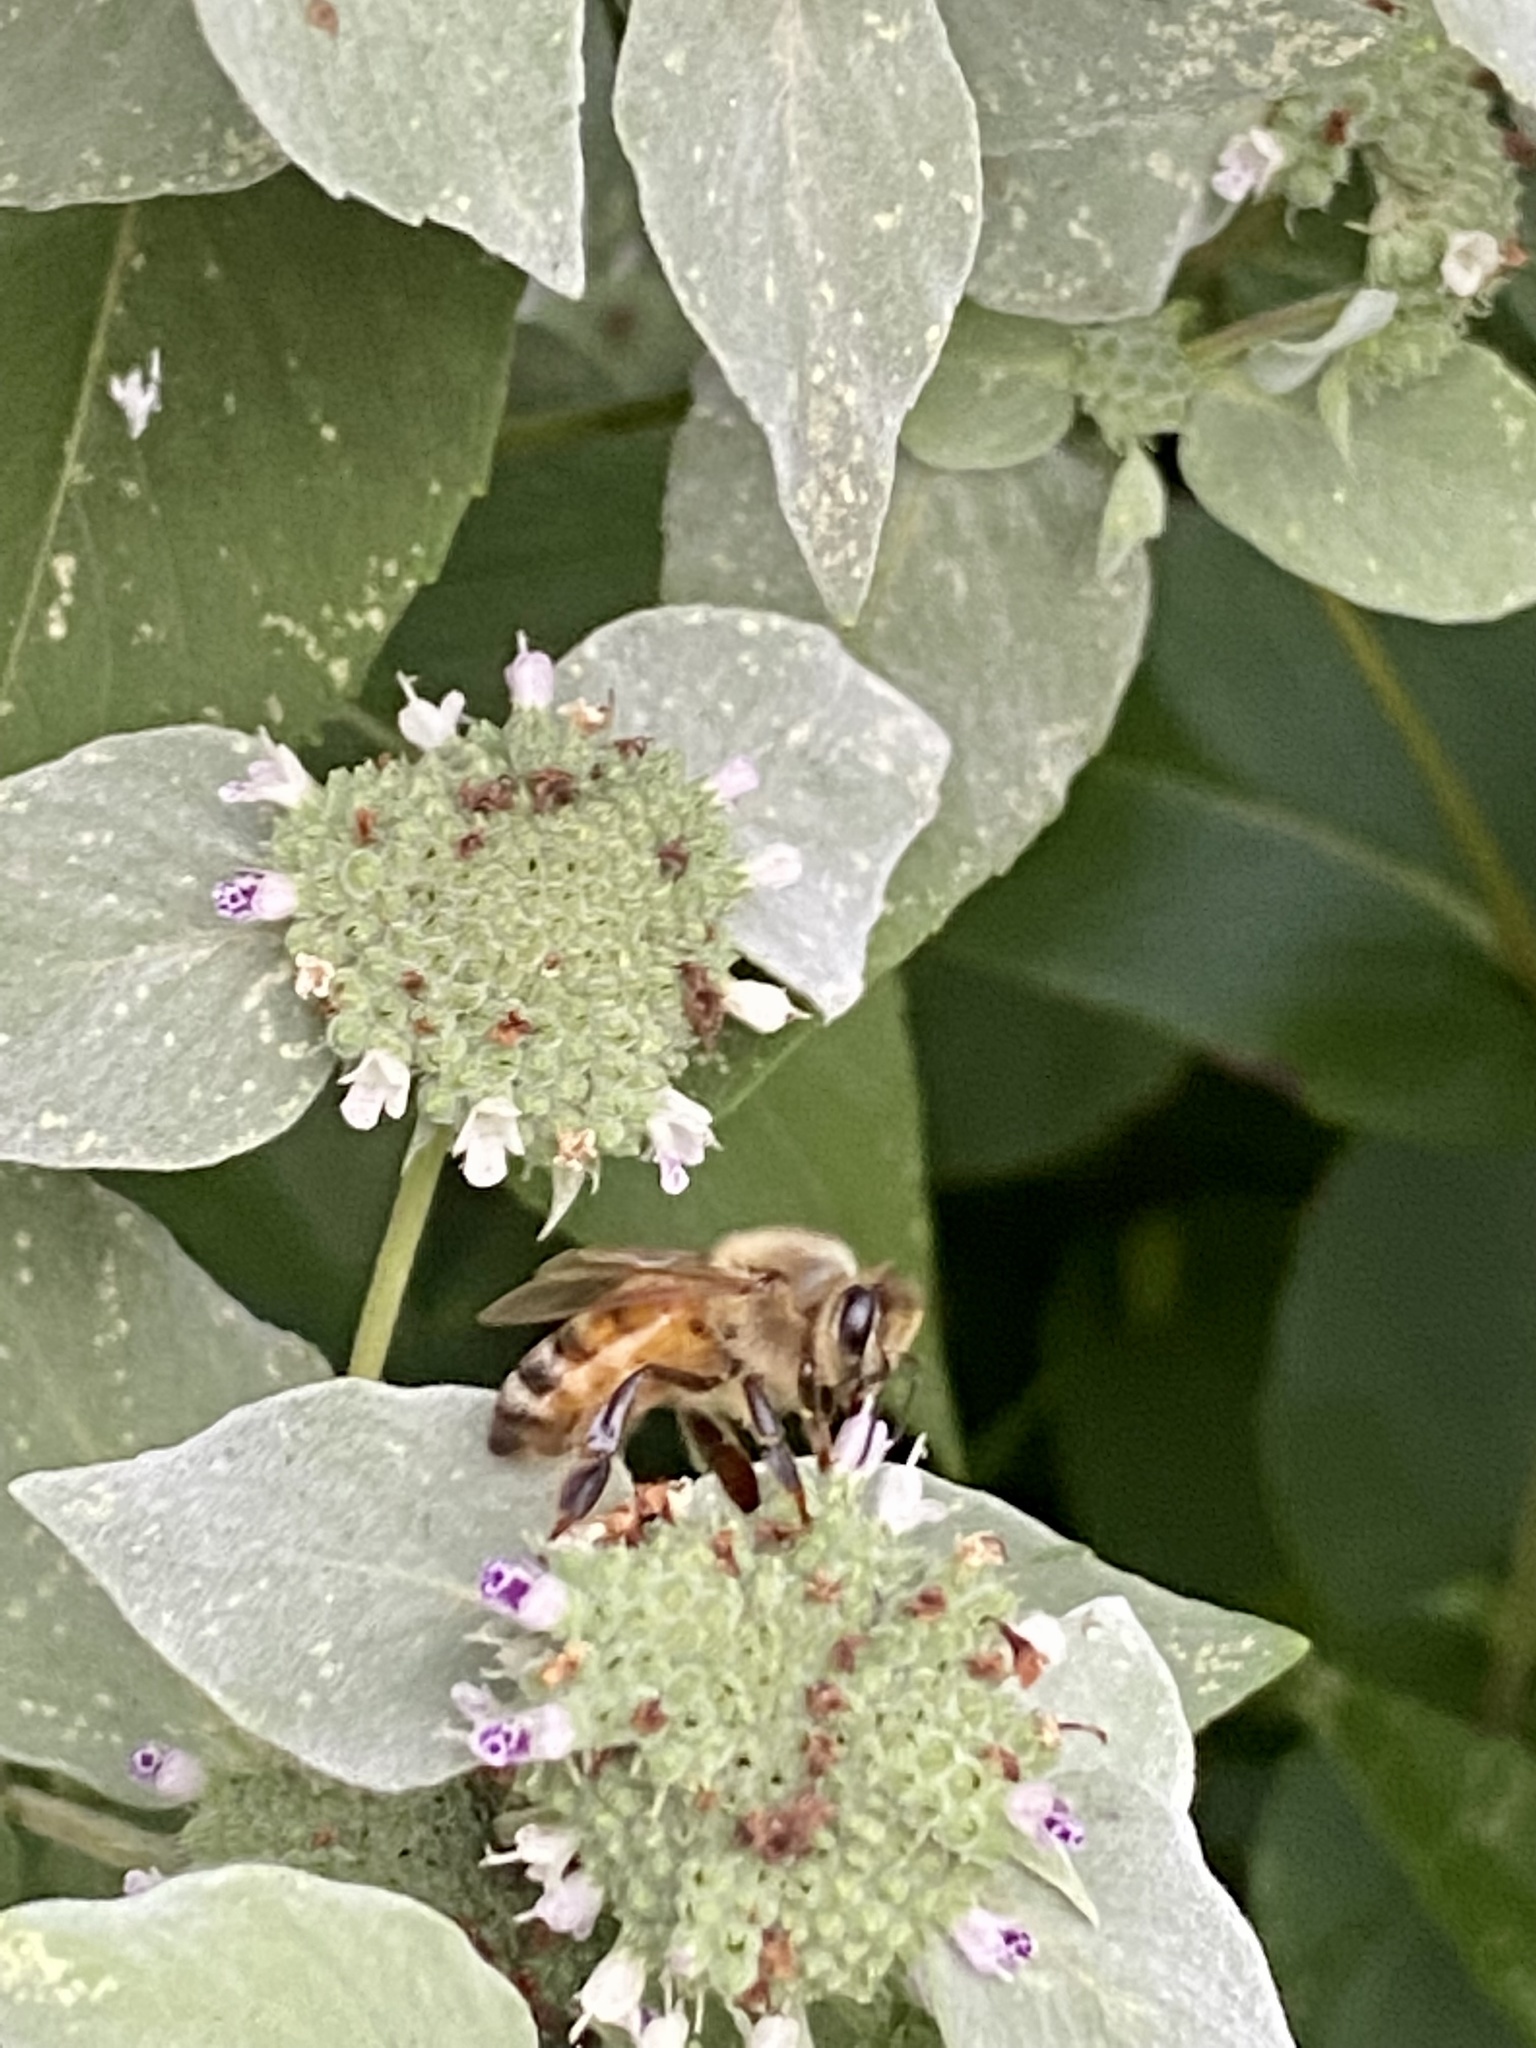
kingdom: Animalia
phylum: Arthropoda
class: Insecta
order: Hymenoptera
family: Apidae
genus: Apis
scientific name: Apis mellifera
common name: Honey bee
